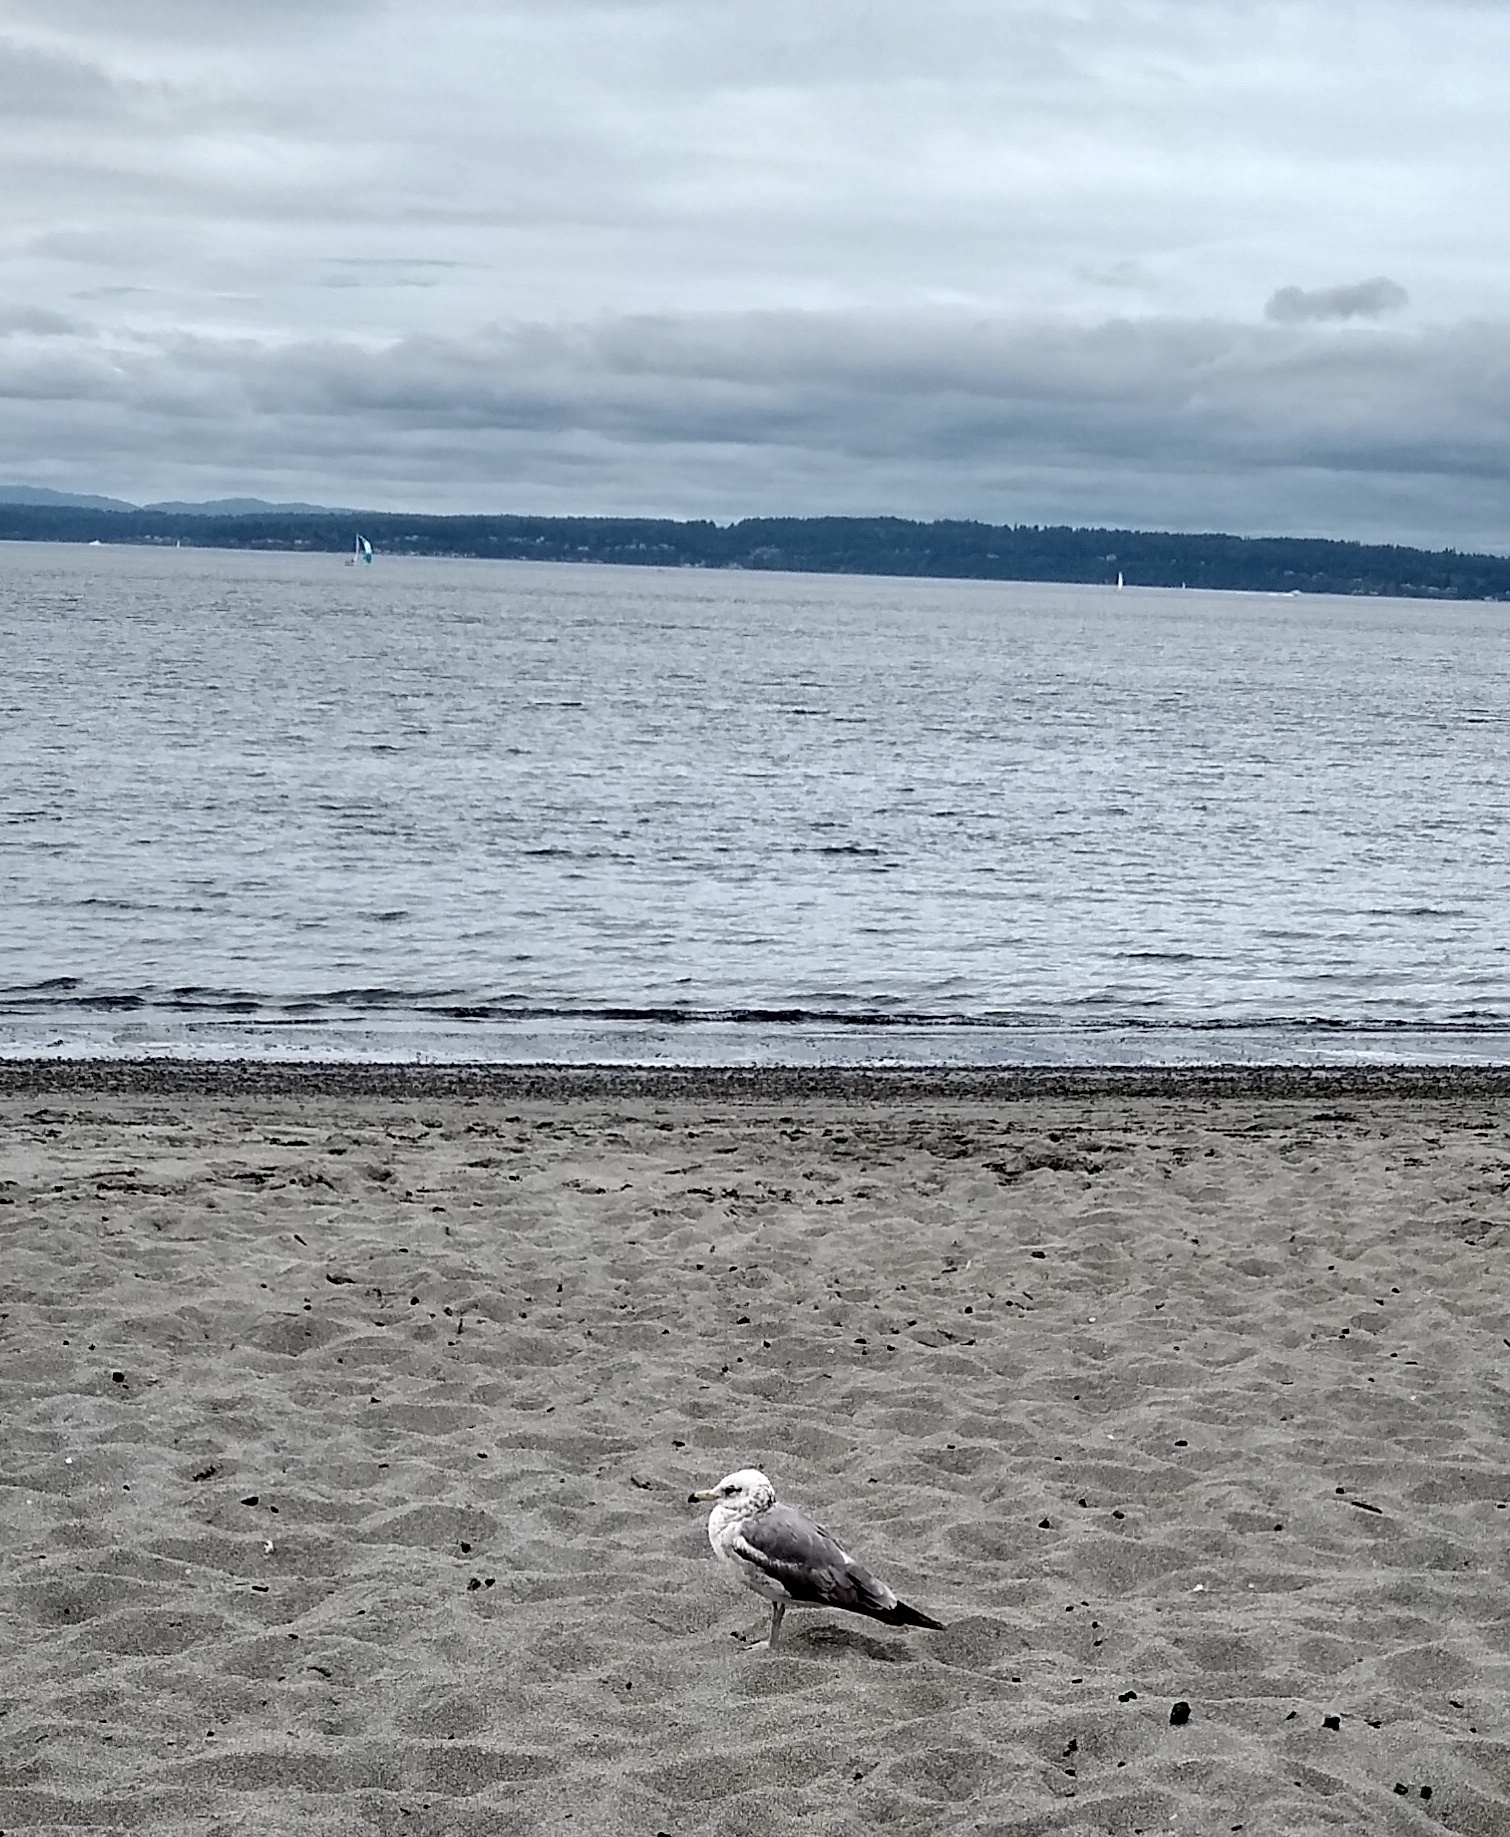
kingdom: Animalia
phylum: Chordata
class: Aves
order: Charadriiformes
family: Laridae
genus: Larus
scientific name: Larus delawarensis
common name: Ring-billed gull
